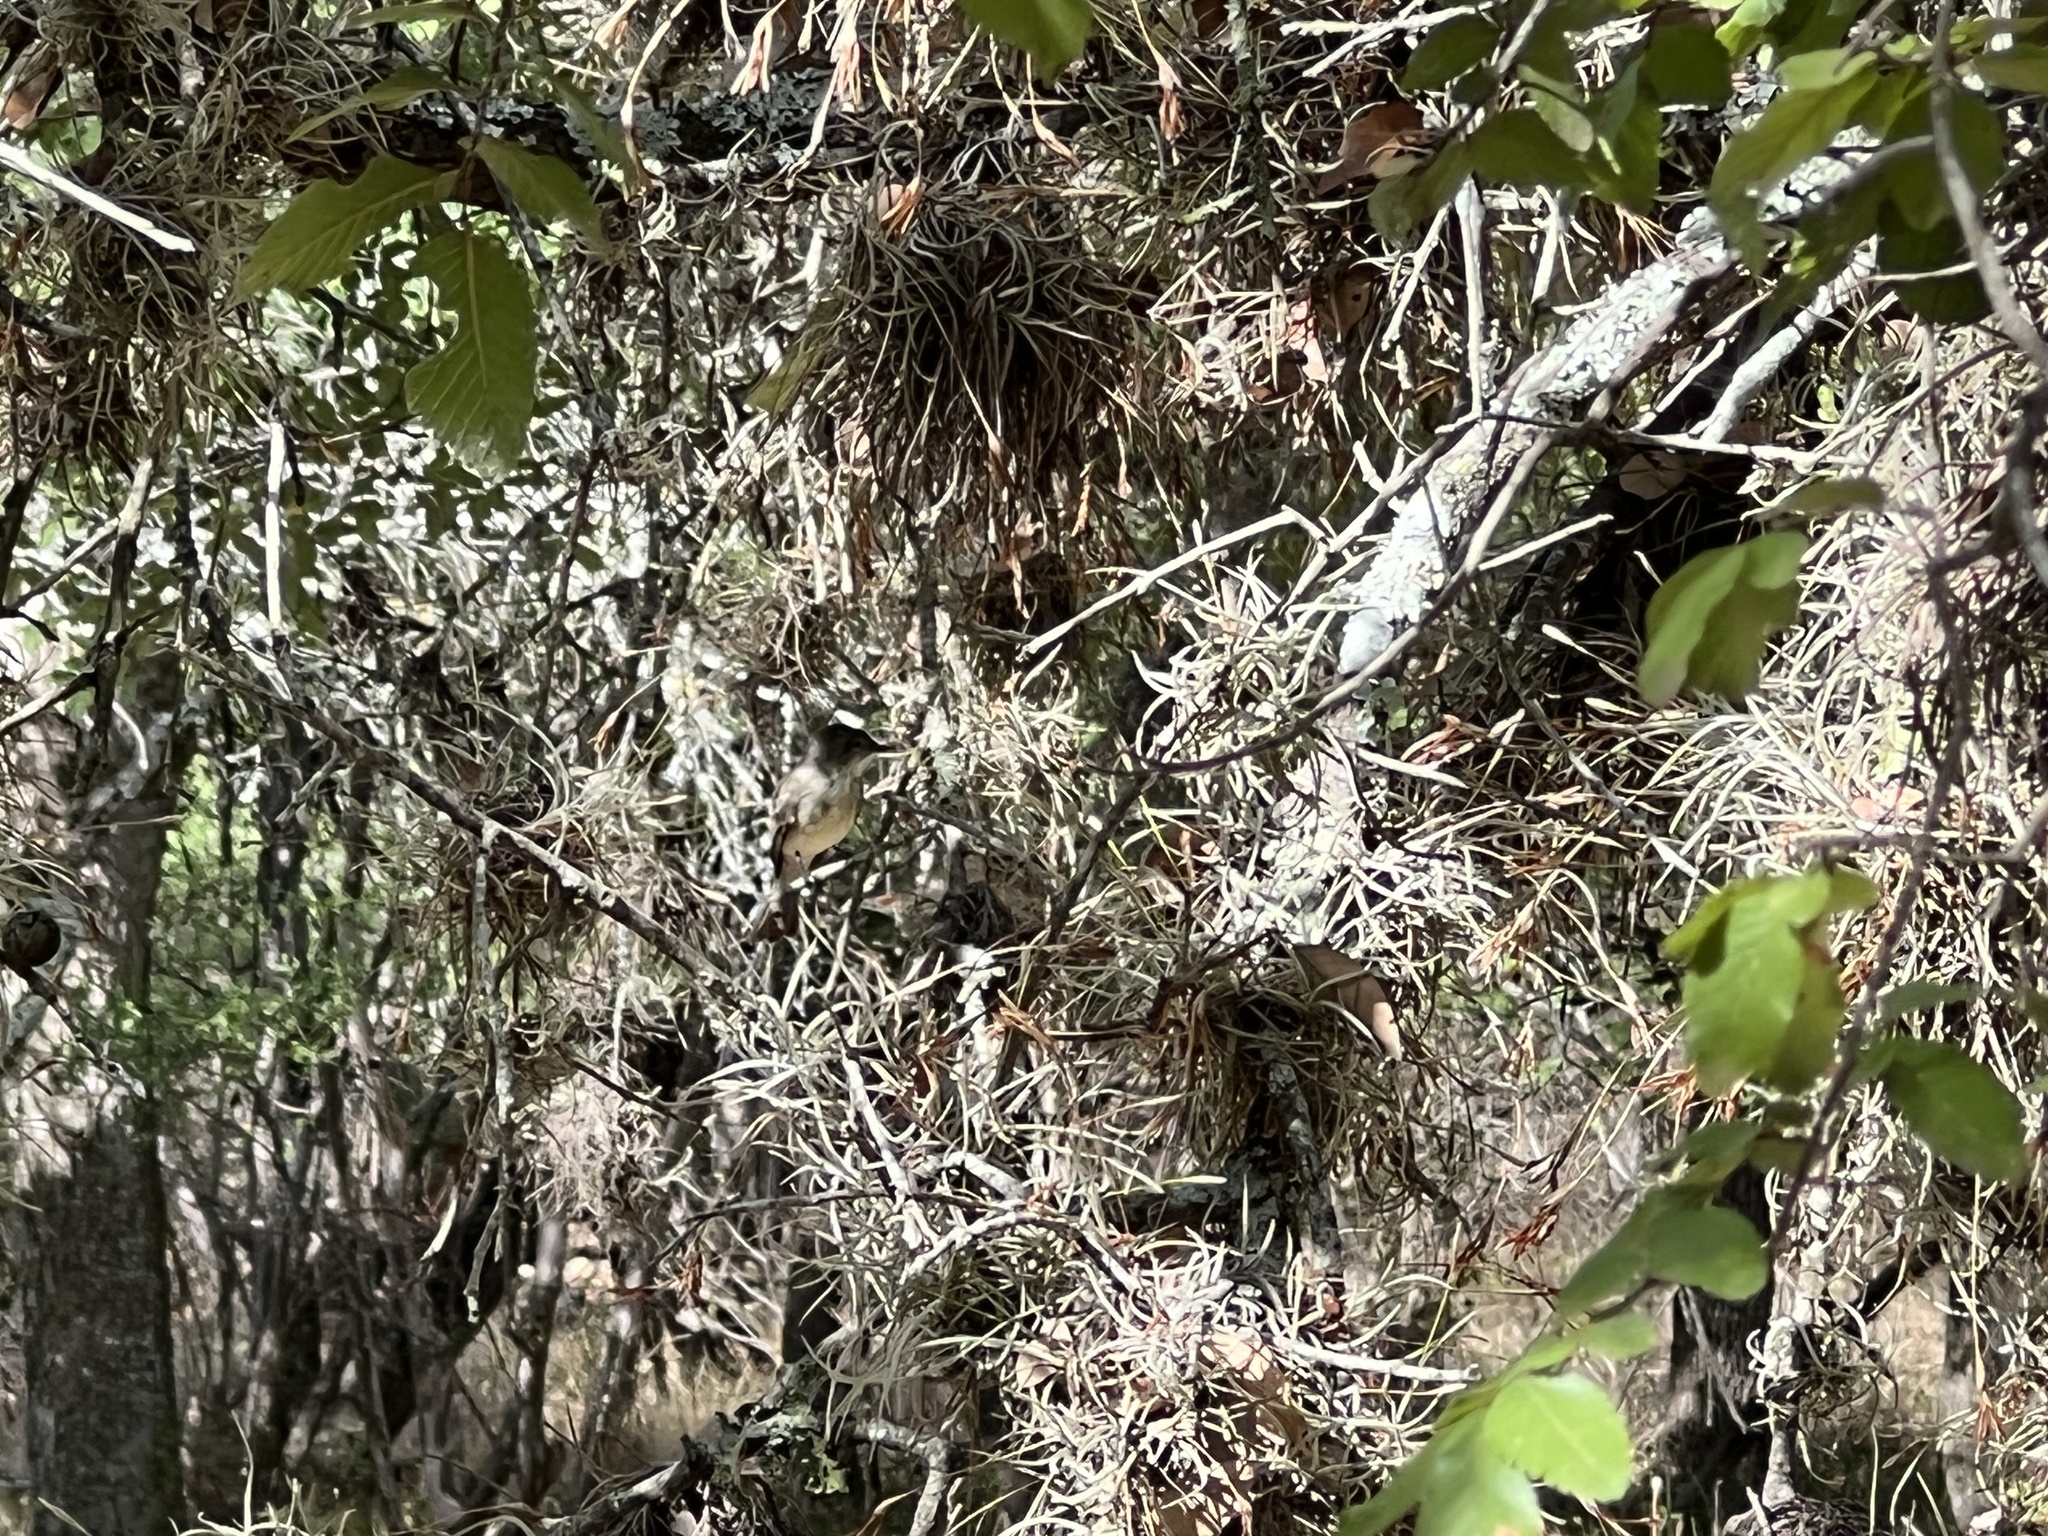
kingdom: Animalia
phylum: Chordata
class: Aves
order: Passeriformes
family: Tyrannidae
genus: Sayornis
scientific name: Sayornis phoebe
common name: Eastern phoebe
